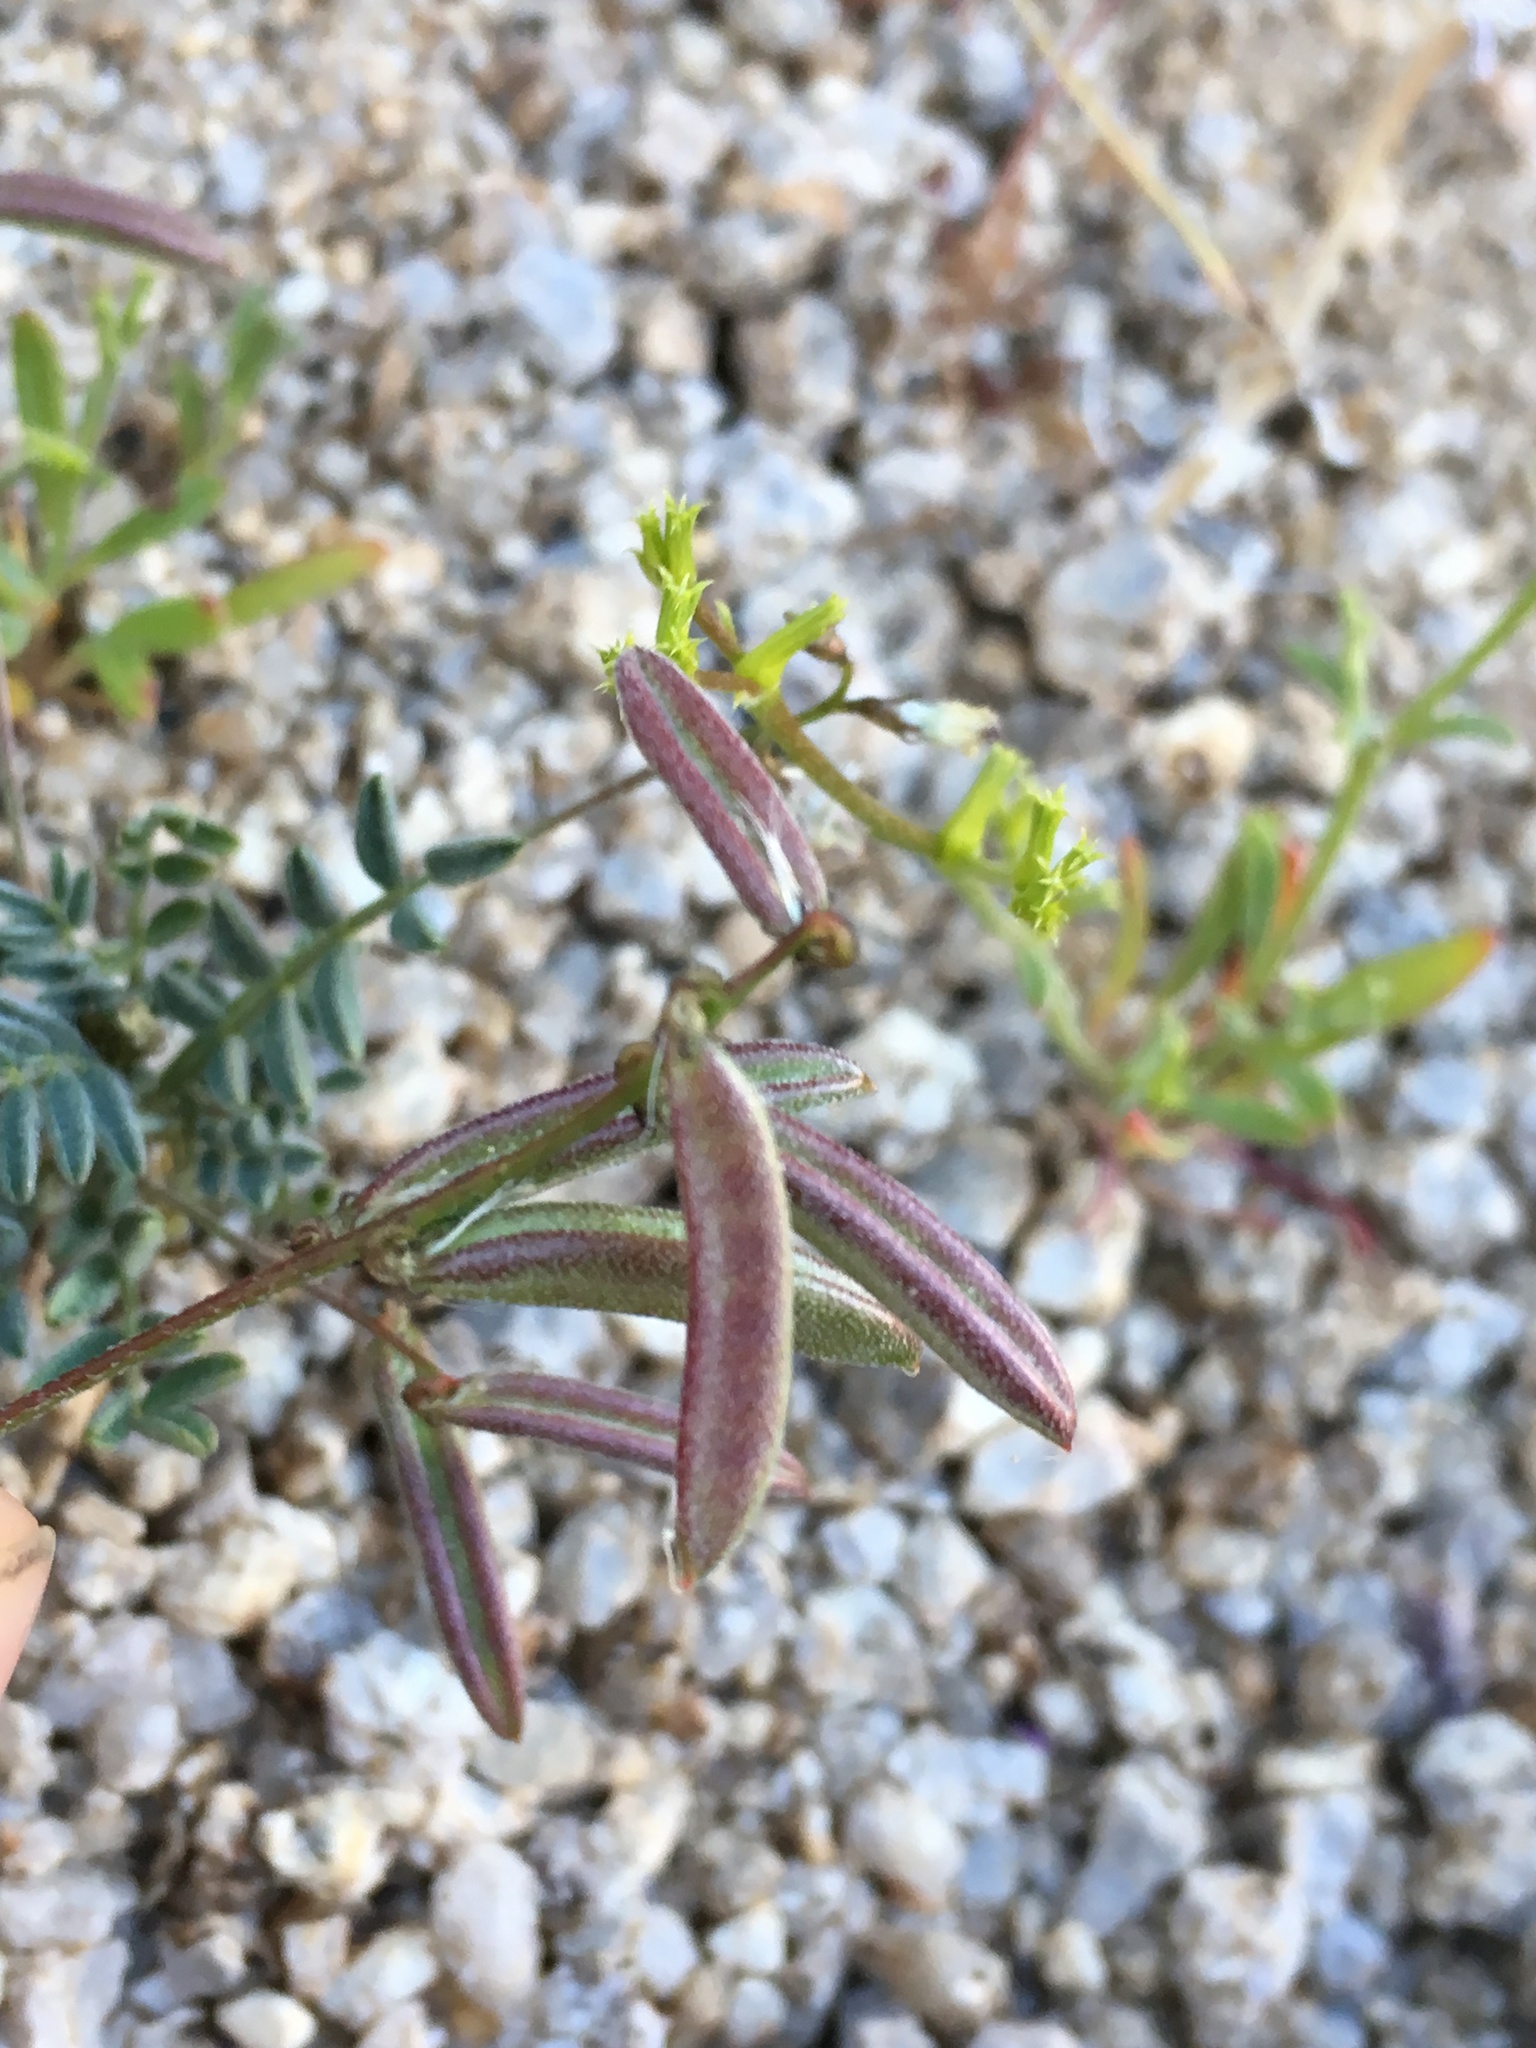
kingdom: Plantae
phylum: Tracheophyta
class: Magnoliopsida
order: Fabales
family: Fabaceae
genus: Astragalus
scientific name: Astragalus acutirostris
